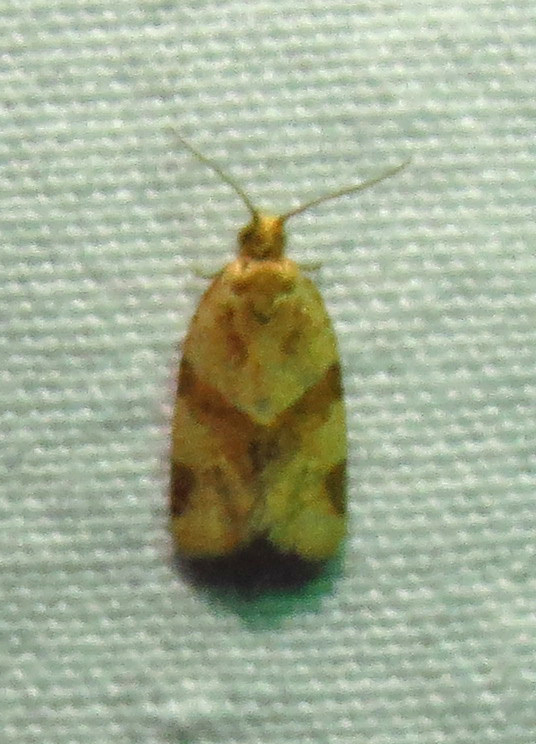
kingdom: Animalia
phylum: Arthropoda
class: Insecta
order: Lepidoptera
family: Tortricidae
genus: Clepsis
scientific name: Clepsis peritana
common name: Garden tortrix
